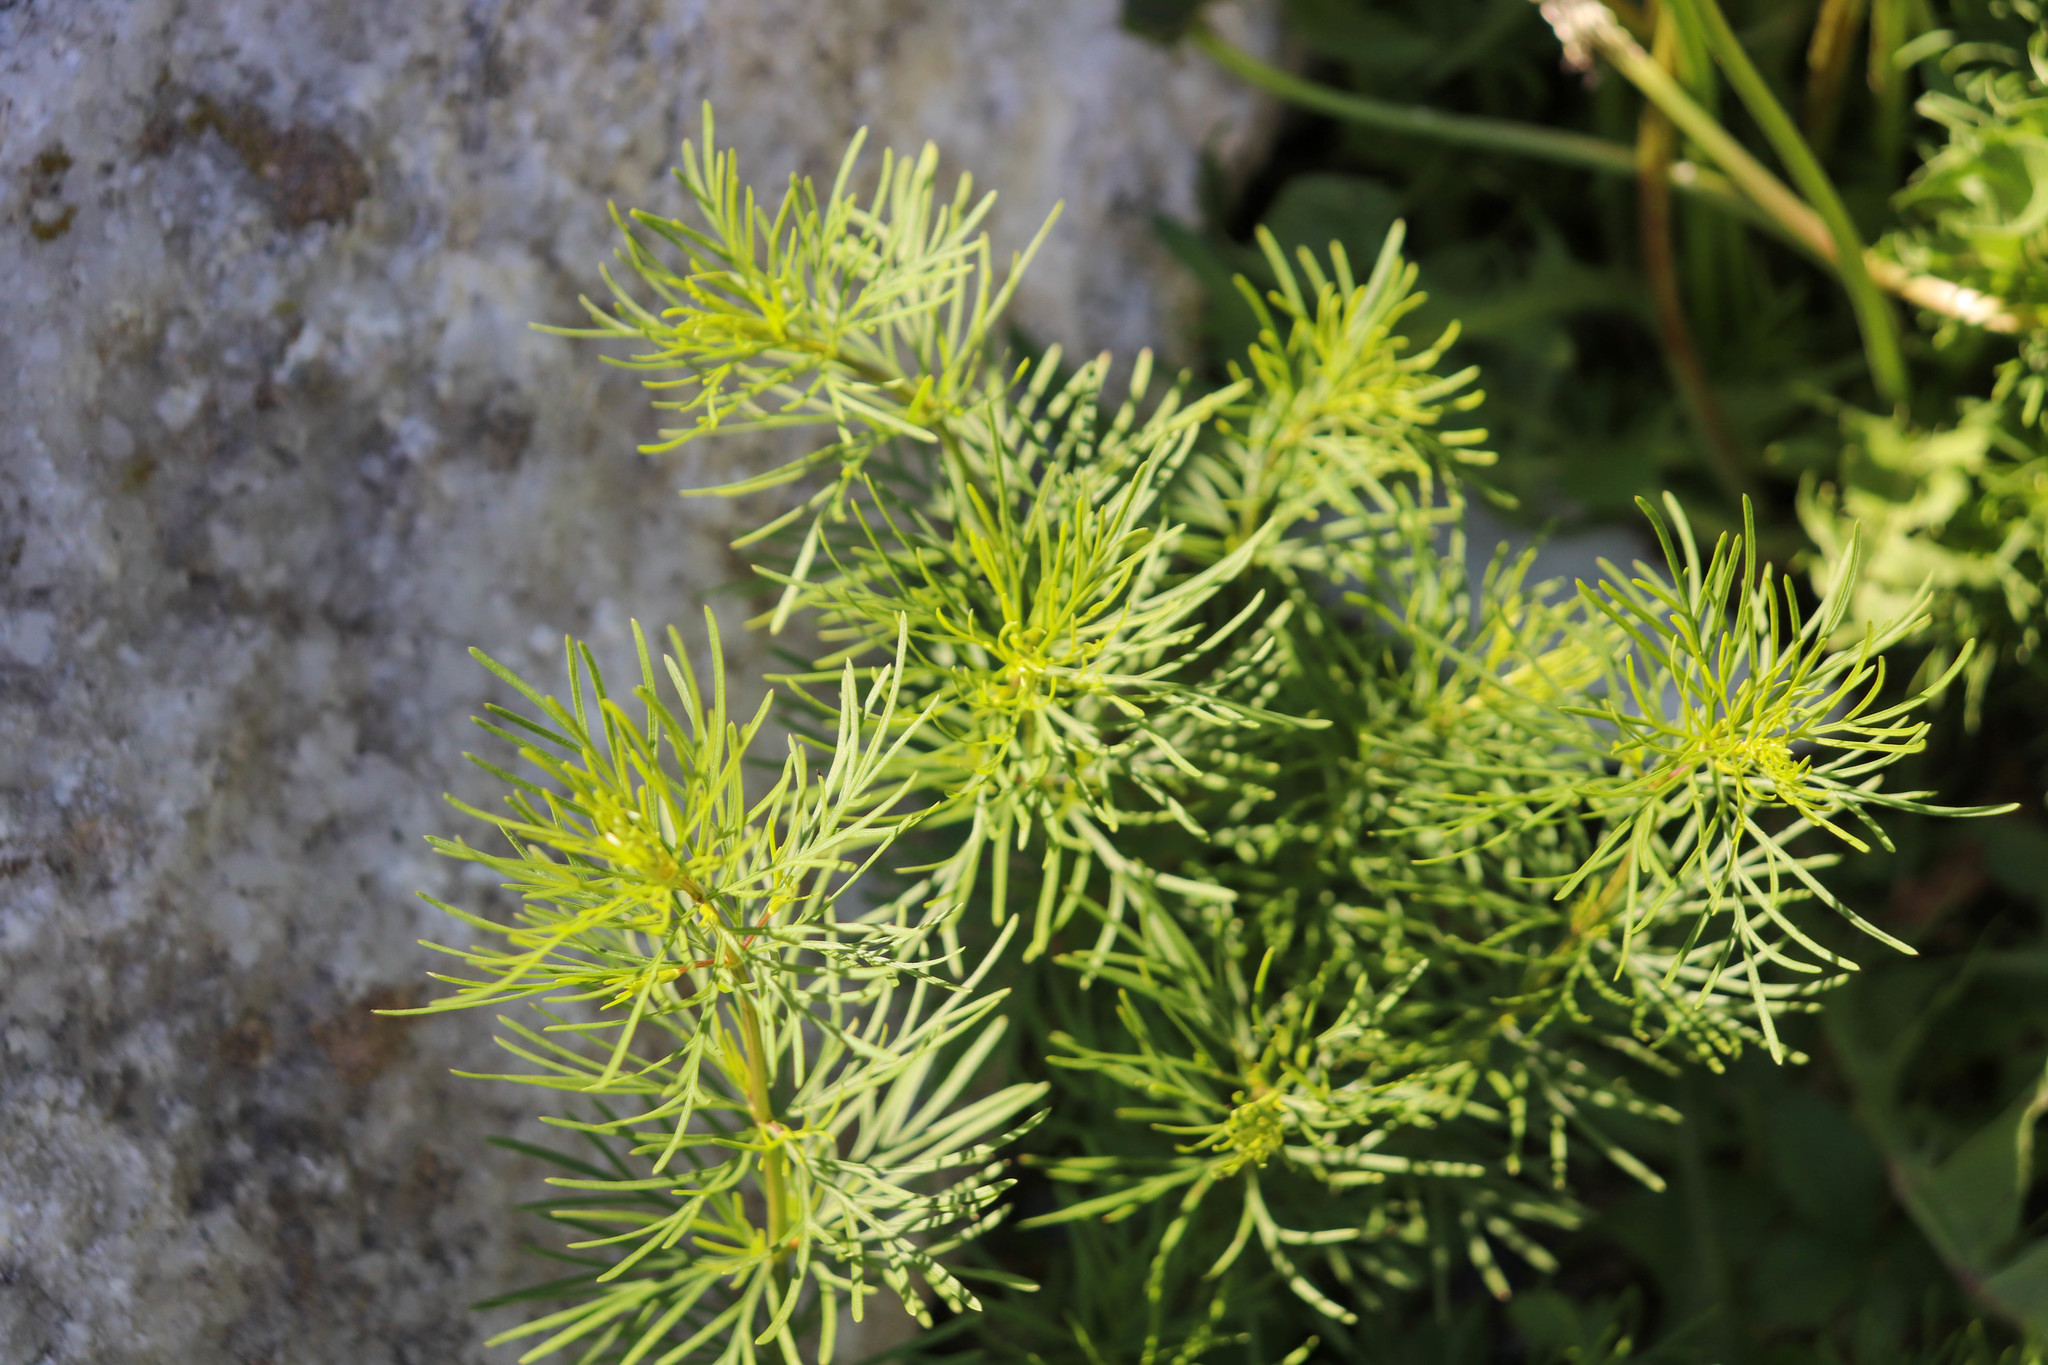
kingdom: Plantae
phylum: Tracheophyta
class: Magnoliopsida
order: Asterales
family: Asteraceae
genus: Coreopsis
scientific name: Coreopsis verticillata
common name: Whorled tickseed
